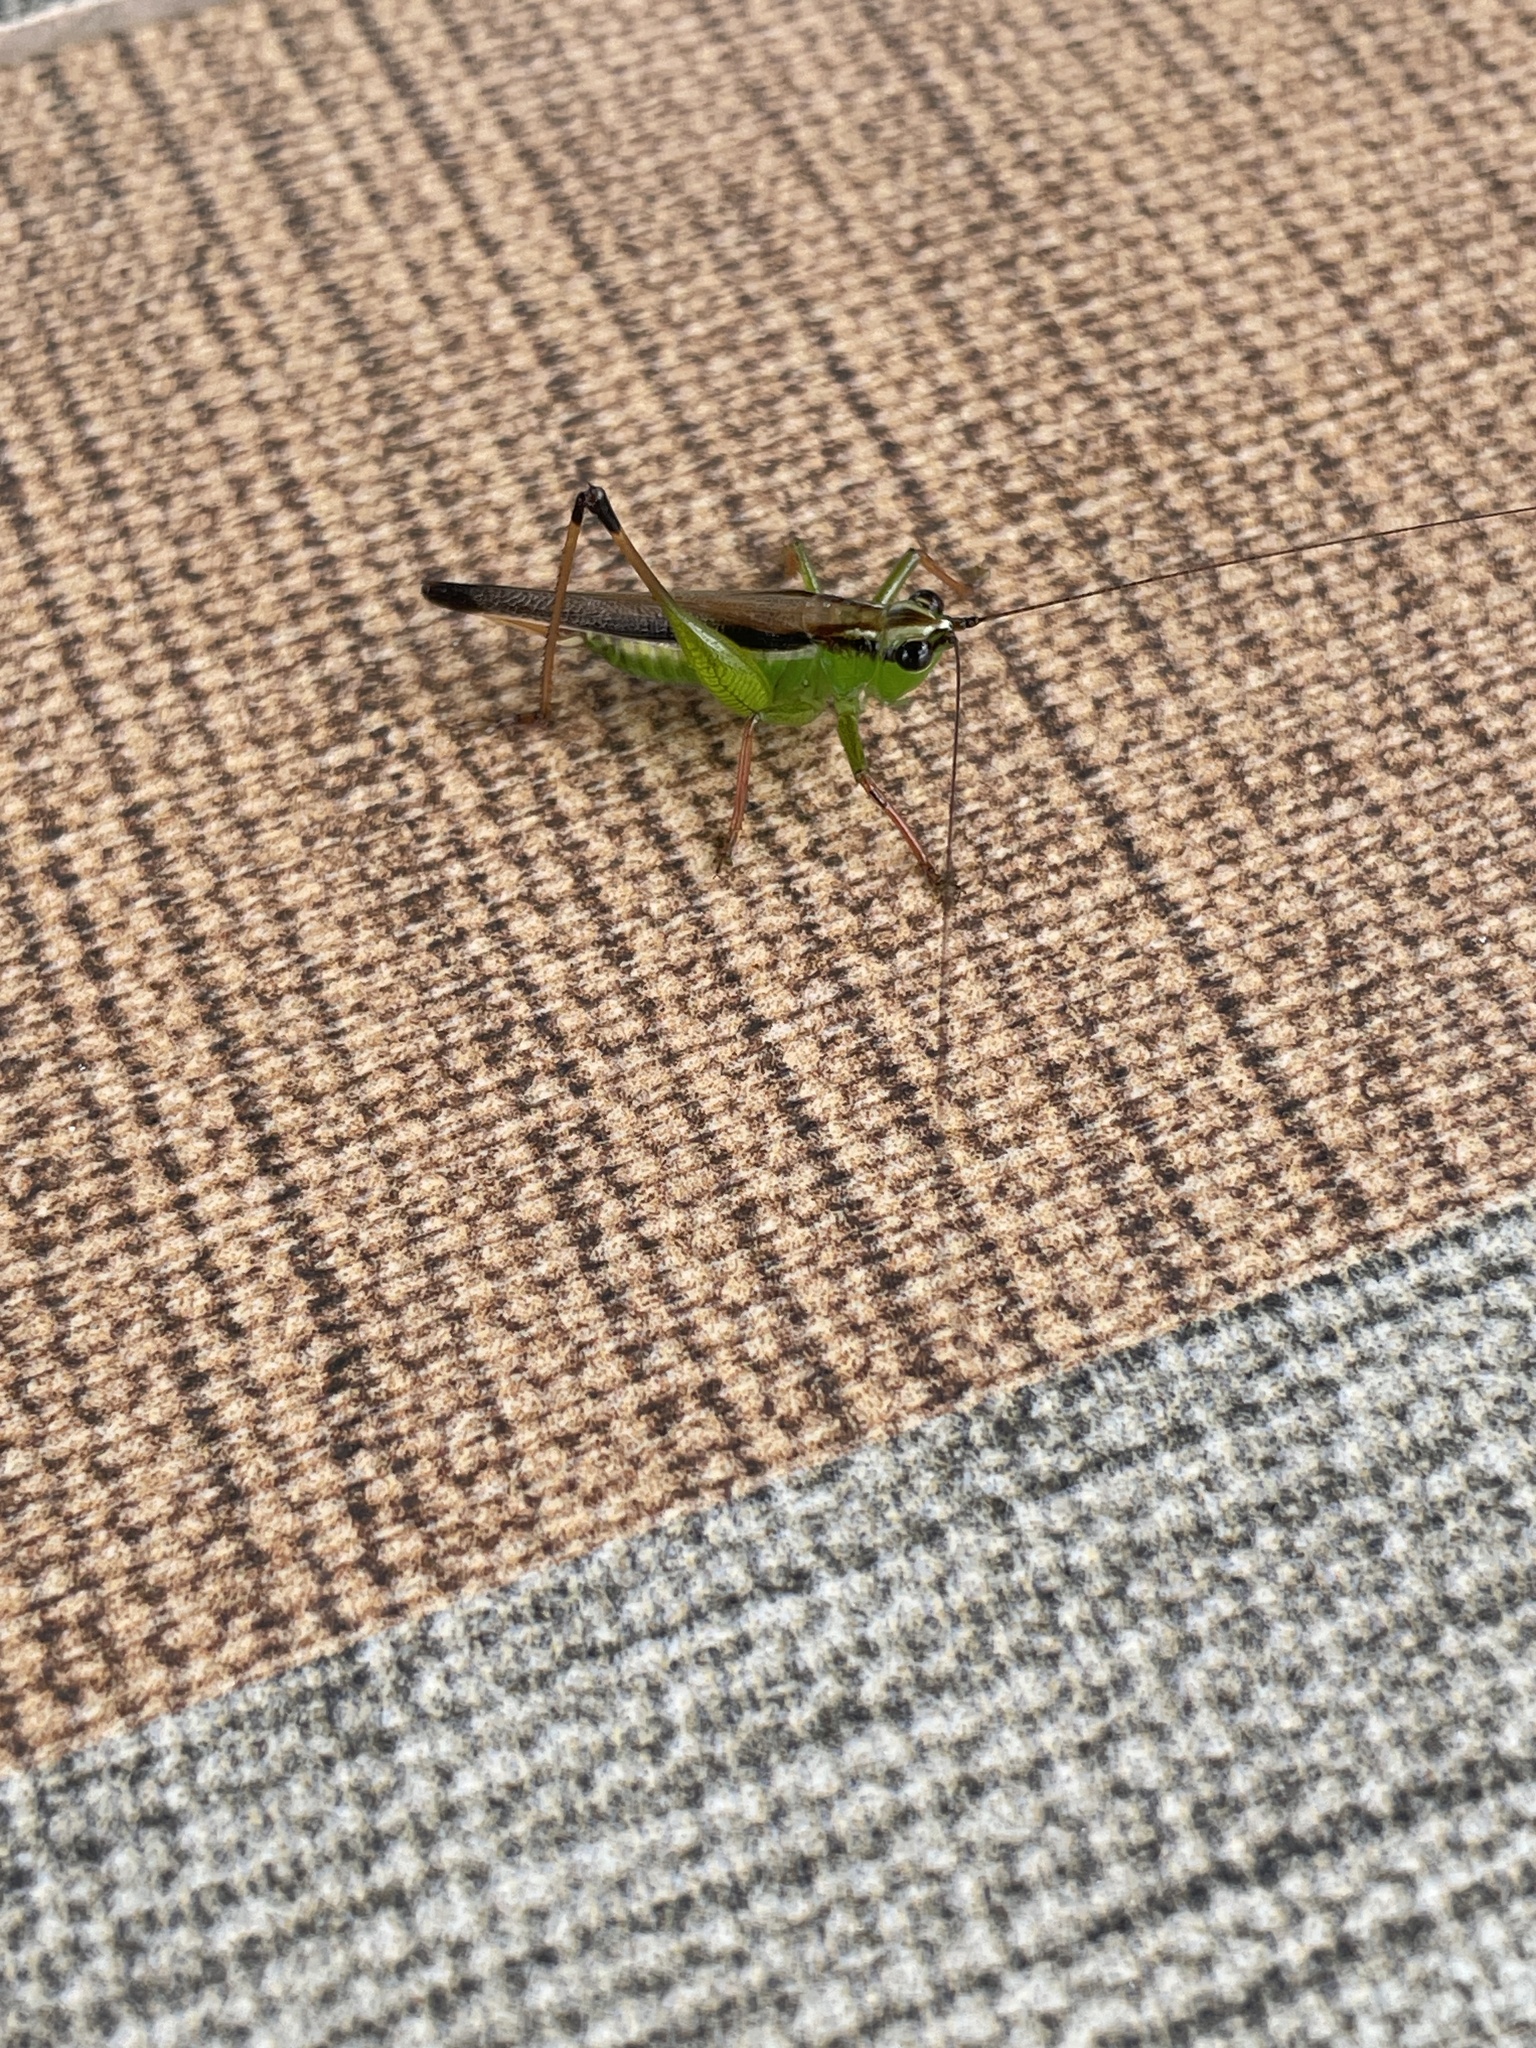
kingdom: Animalia
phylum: Arthropoda
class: Insecta
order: Orthoptera
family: Tettigoniidae
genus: Conocephalus
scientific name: Conocephalus melaenus
